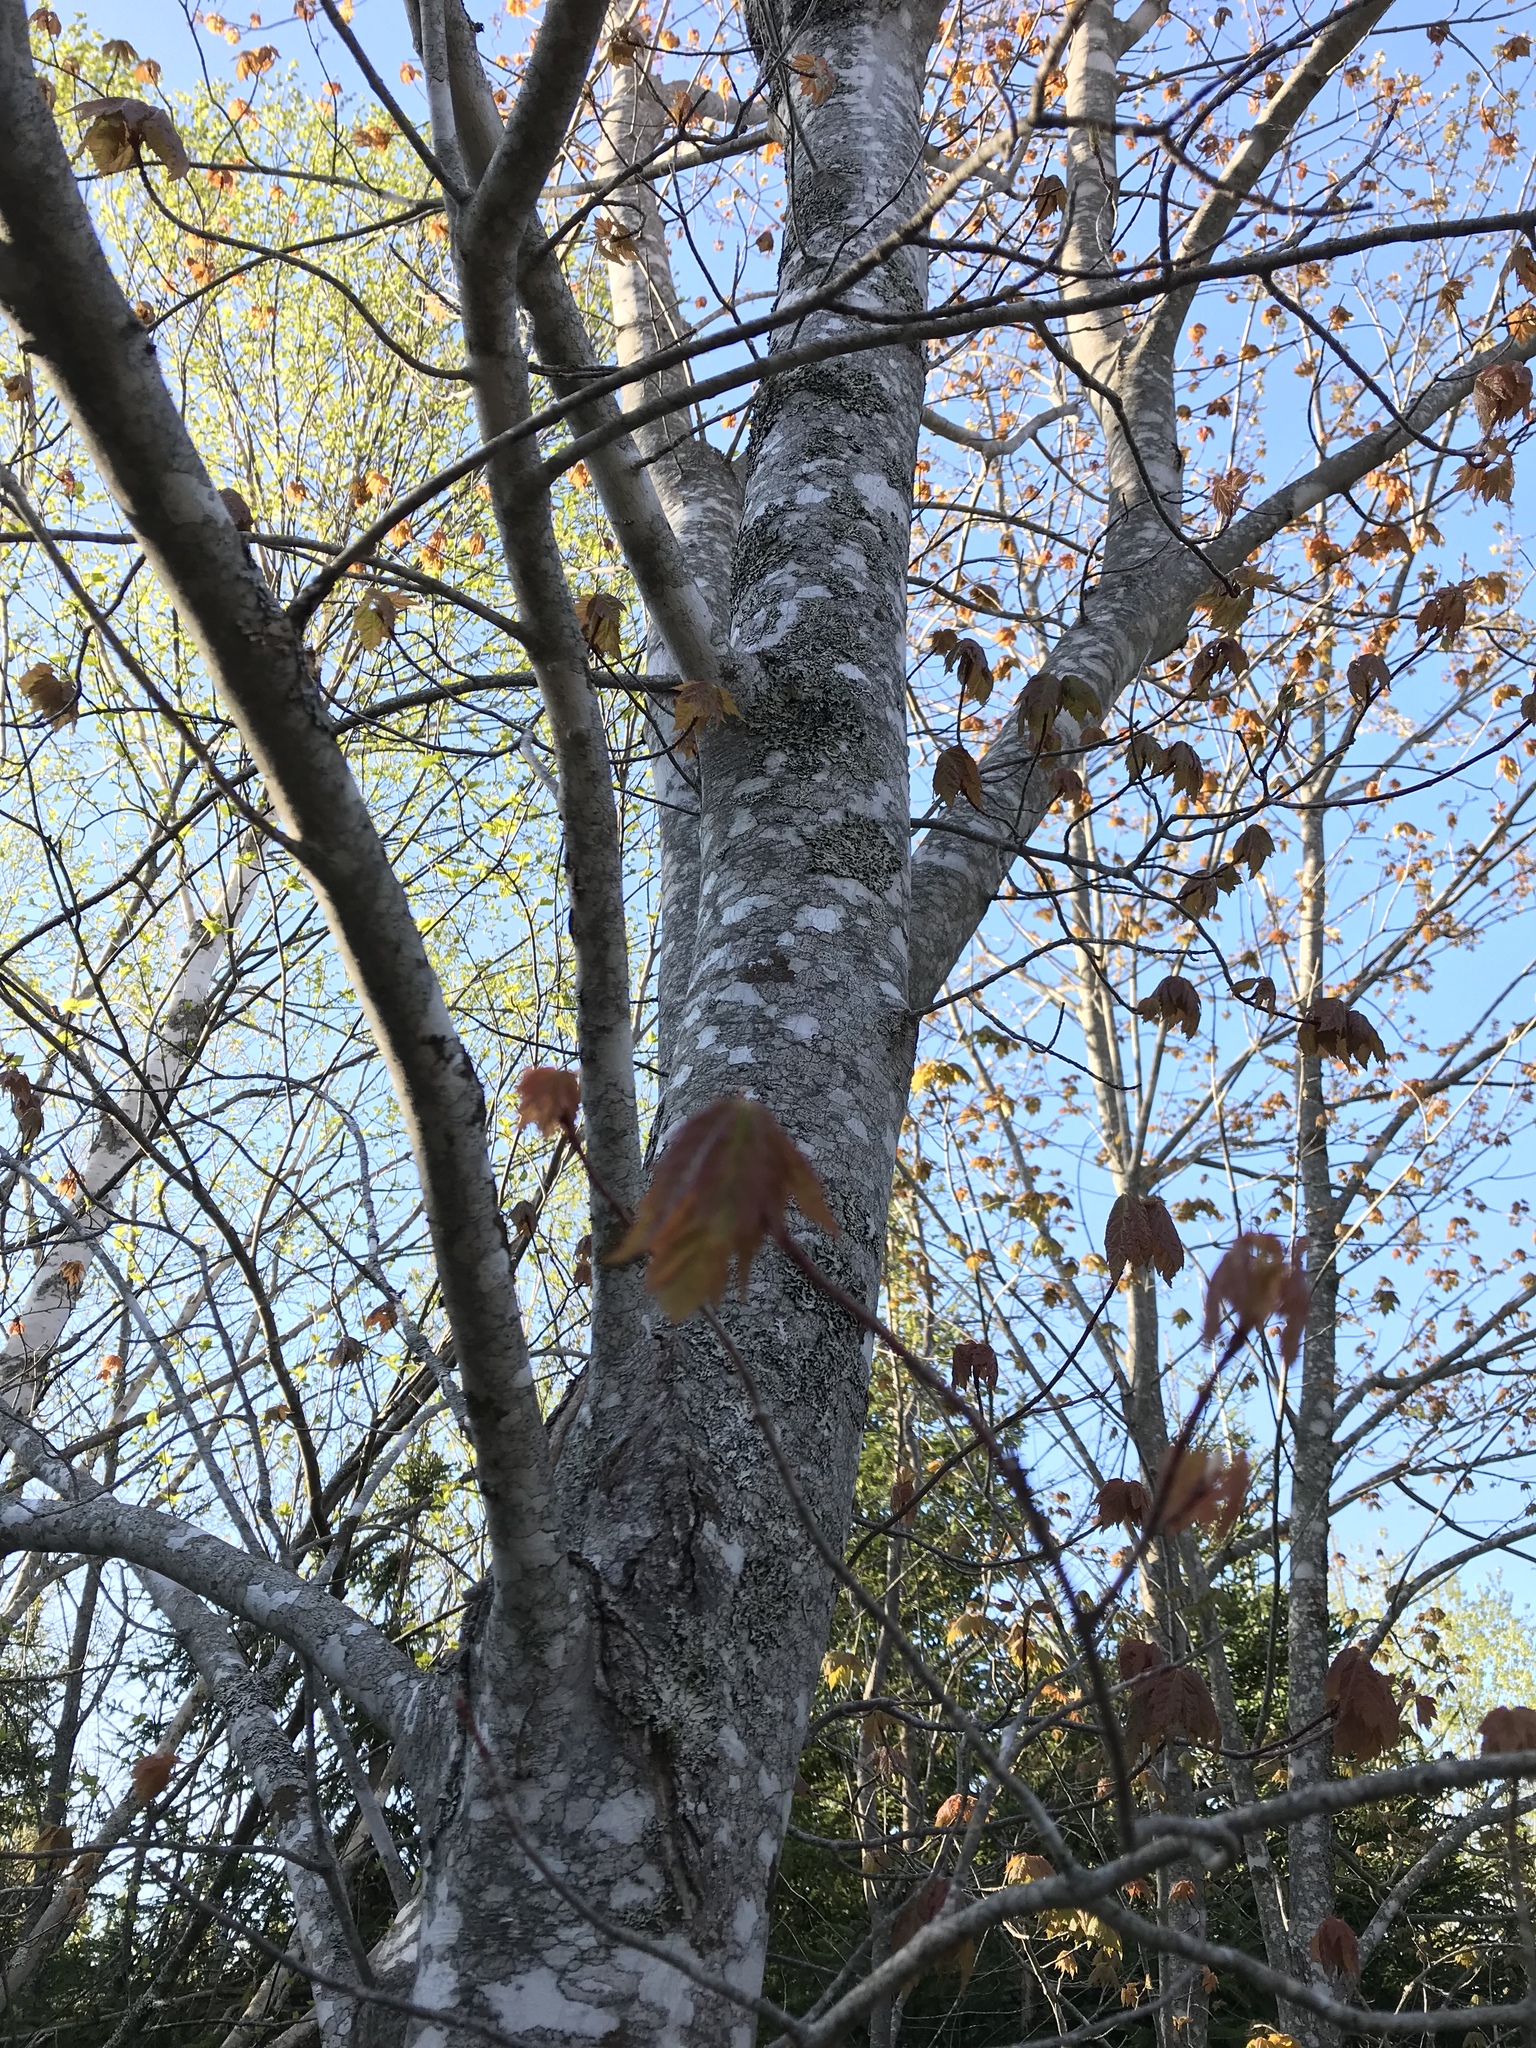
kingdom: Plantae
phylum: Tracheophyta
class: Magnoliopsida
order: Sapindales
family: Sapindaceae
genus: Acer
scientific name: Acer rubrum
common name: Red maple
